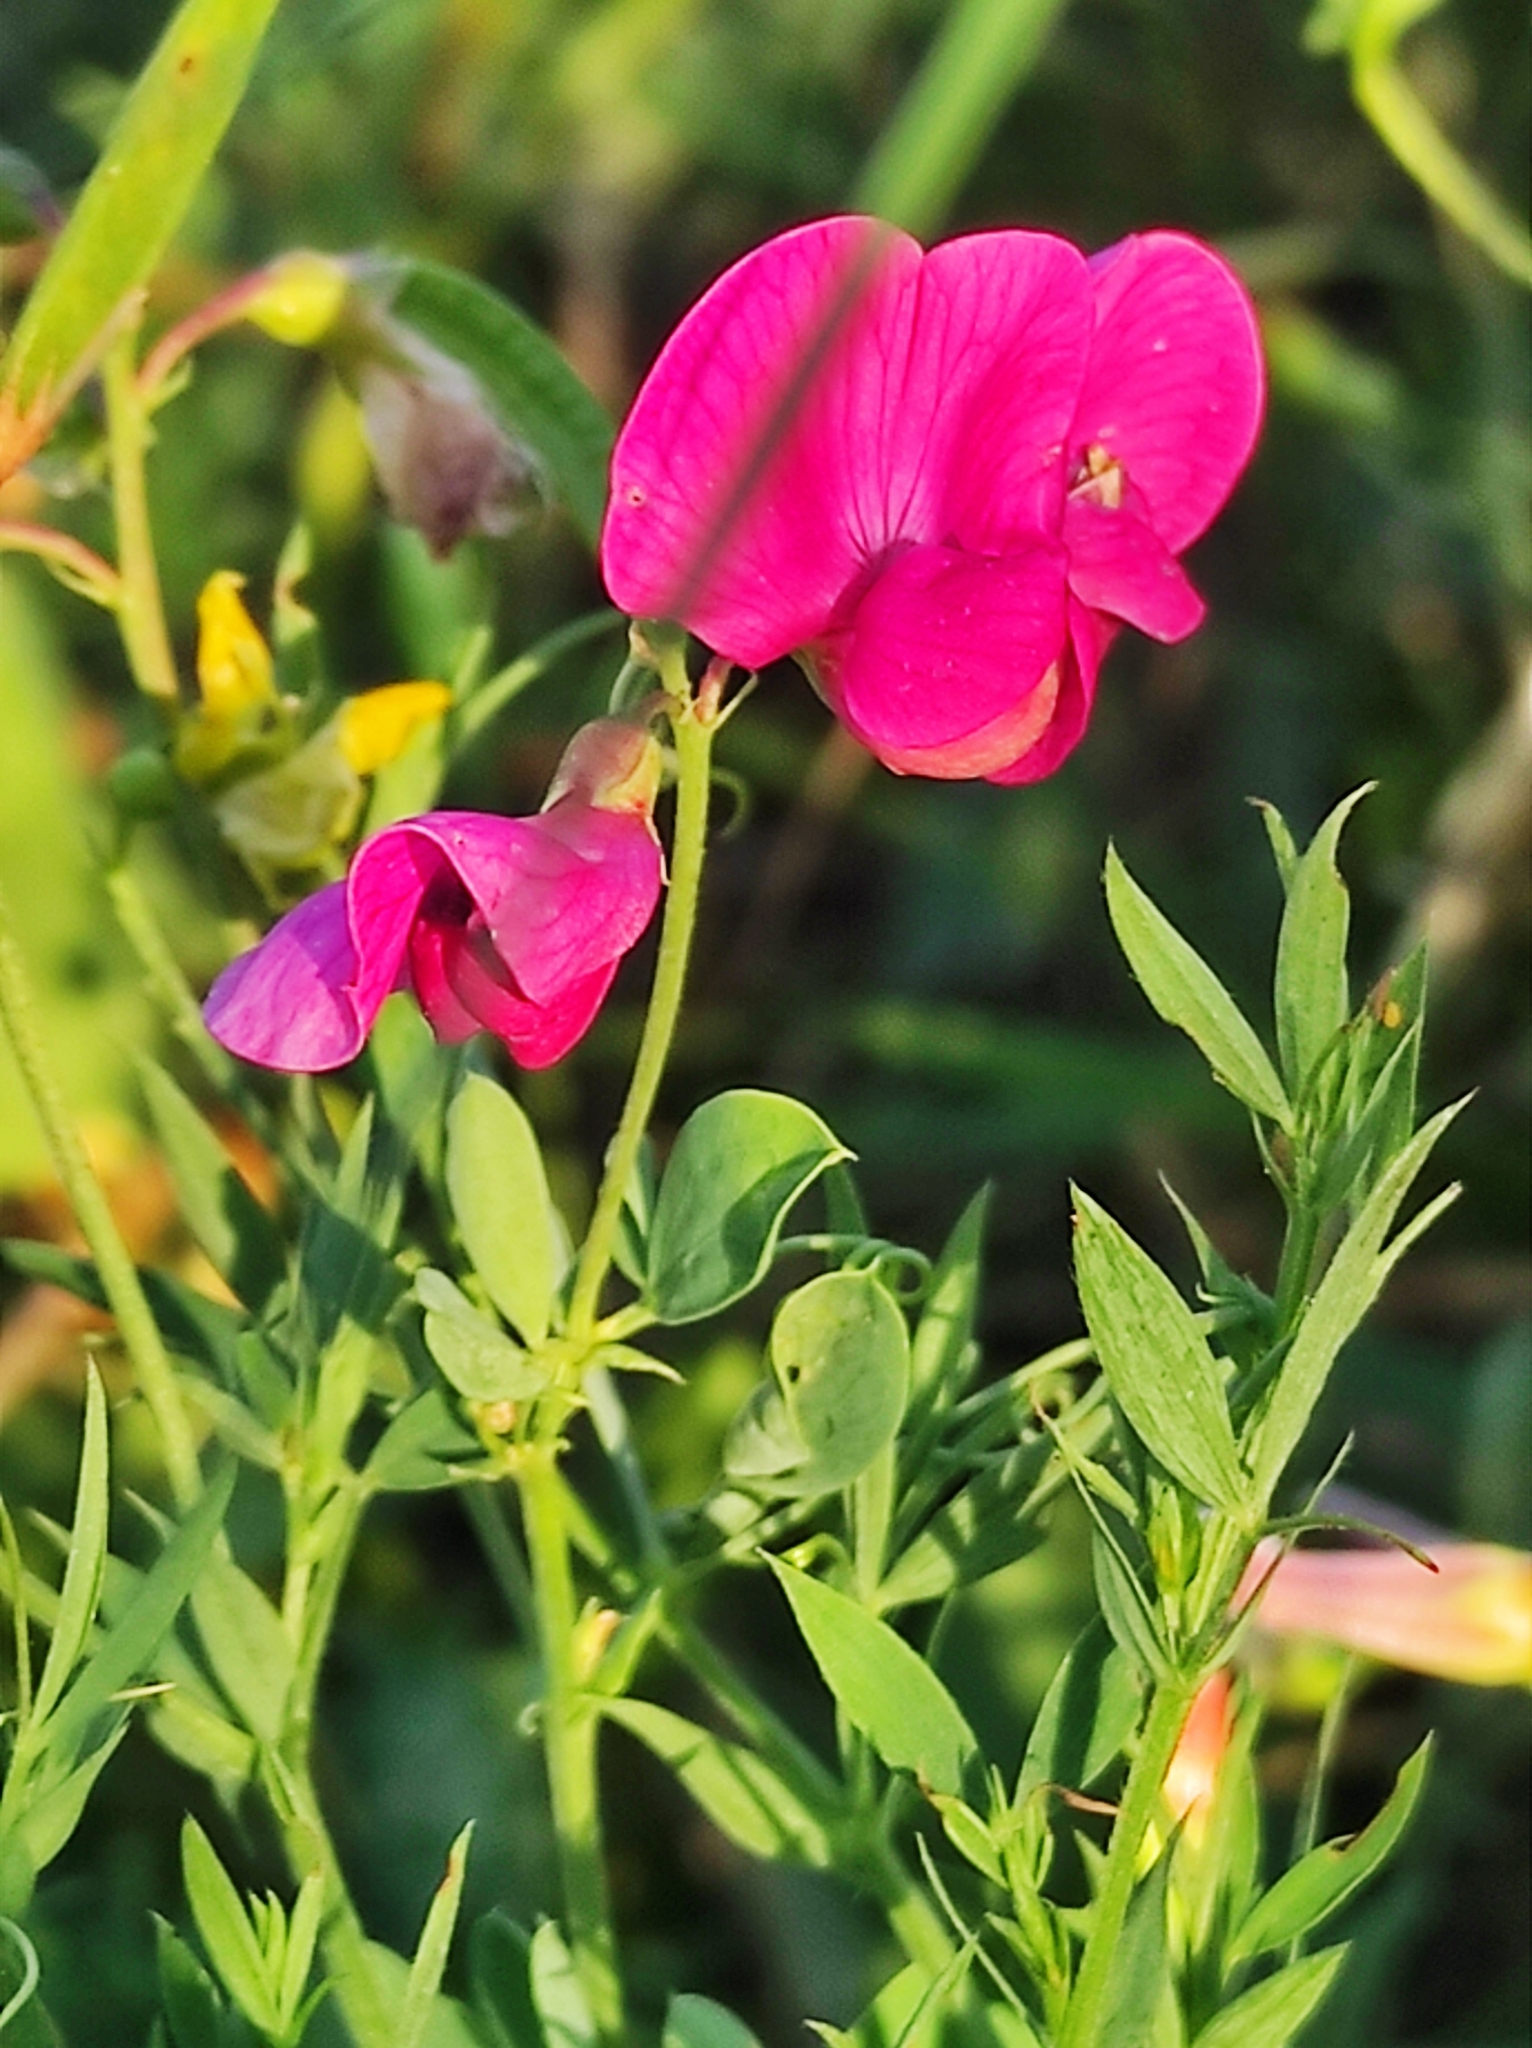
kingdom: Plantae
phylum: Tracheophyta
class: Magnoliopsida
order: Fabales
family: Fabaceae
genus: Lathyrus
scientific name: Lathyrus tuberosus
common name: Tuberous pea
